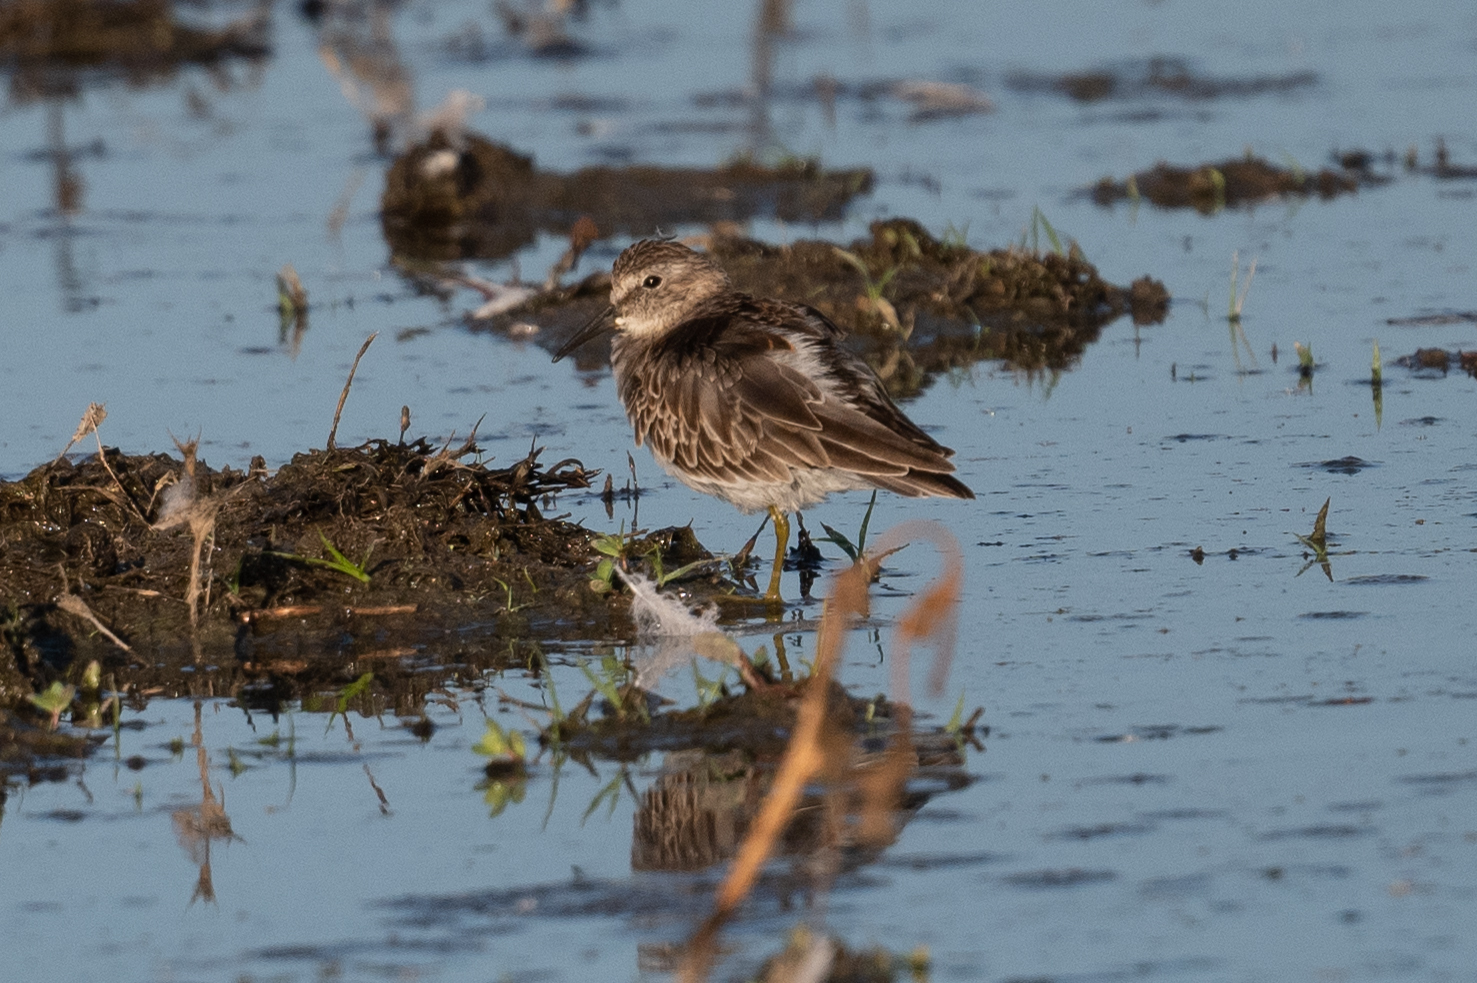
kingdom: Animalia
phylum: Chordata
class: Aves
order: Charadriiformes
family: Scolopacidae
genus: Calidris
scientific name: Calidris minutilla
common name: Least sandpiper
